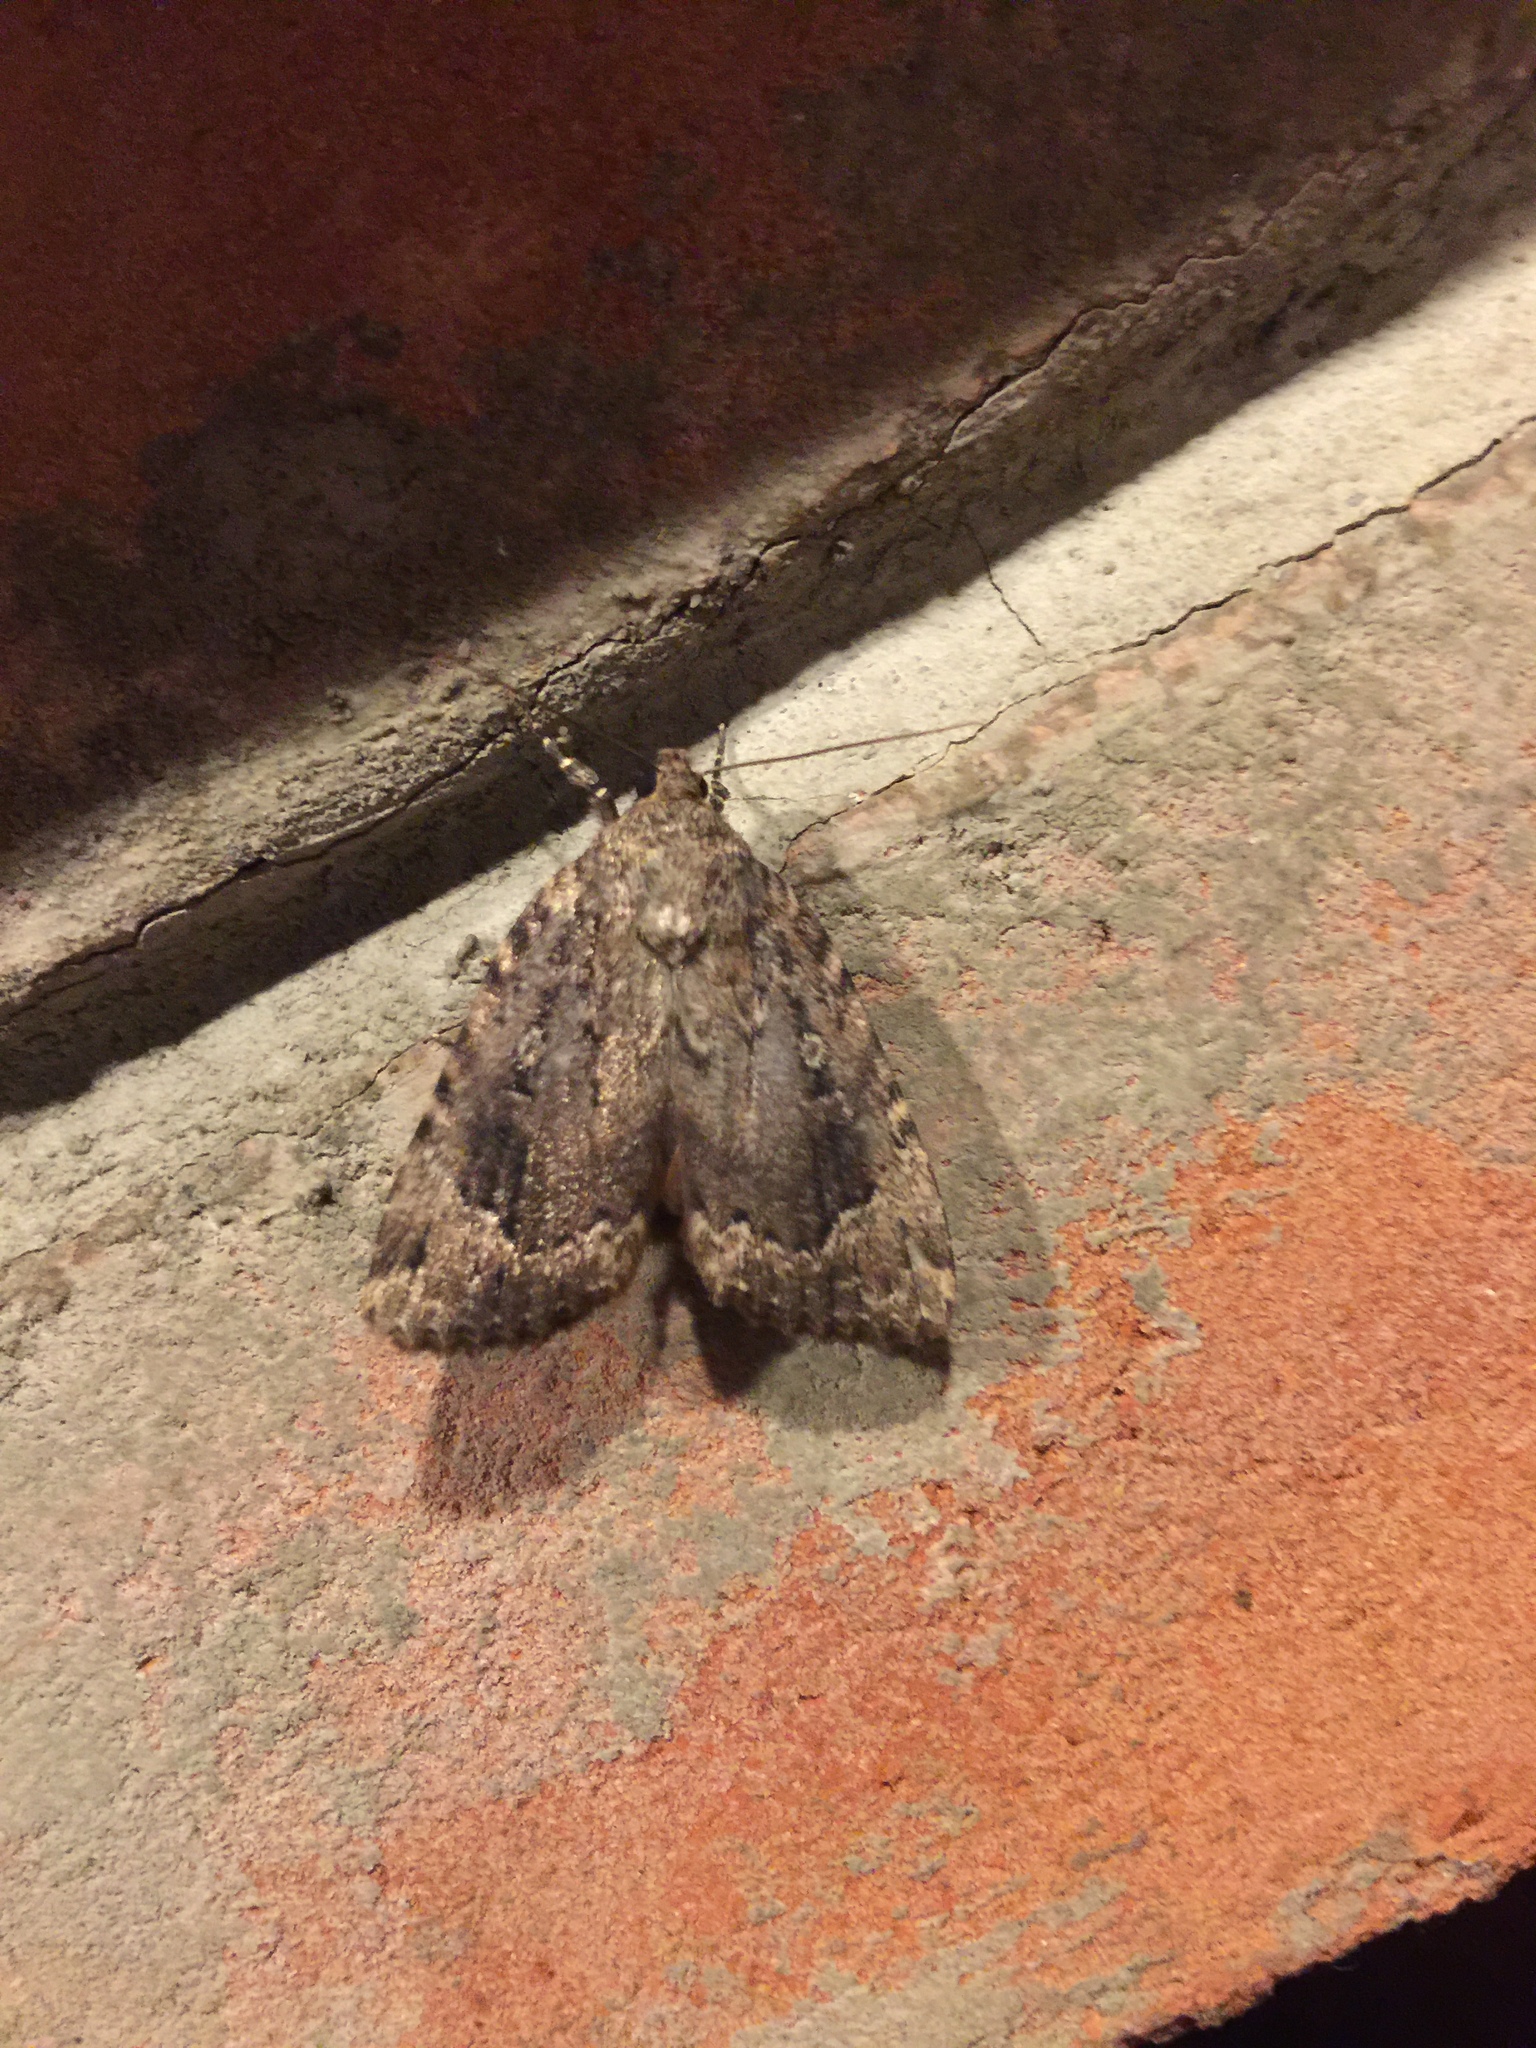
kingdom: Animalia
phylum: Arthropoda
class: Insecta
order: Lepidoptera
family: Noctuidae
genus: Amphipyra
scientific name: Amphipyra pyramidoides
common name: American copper underwing
